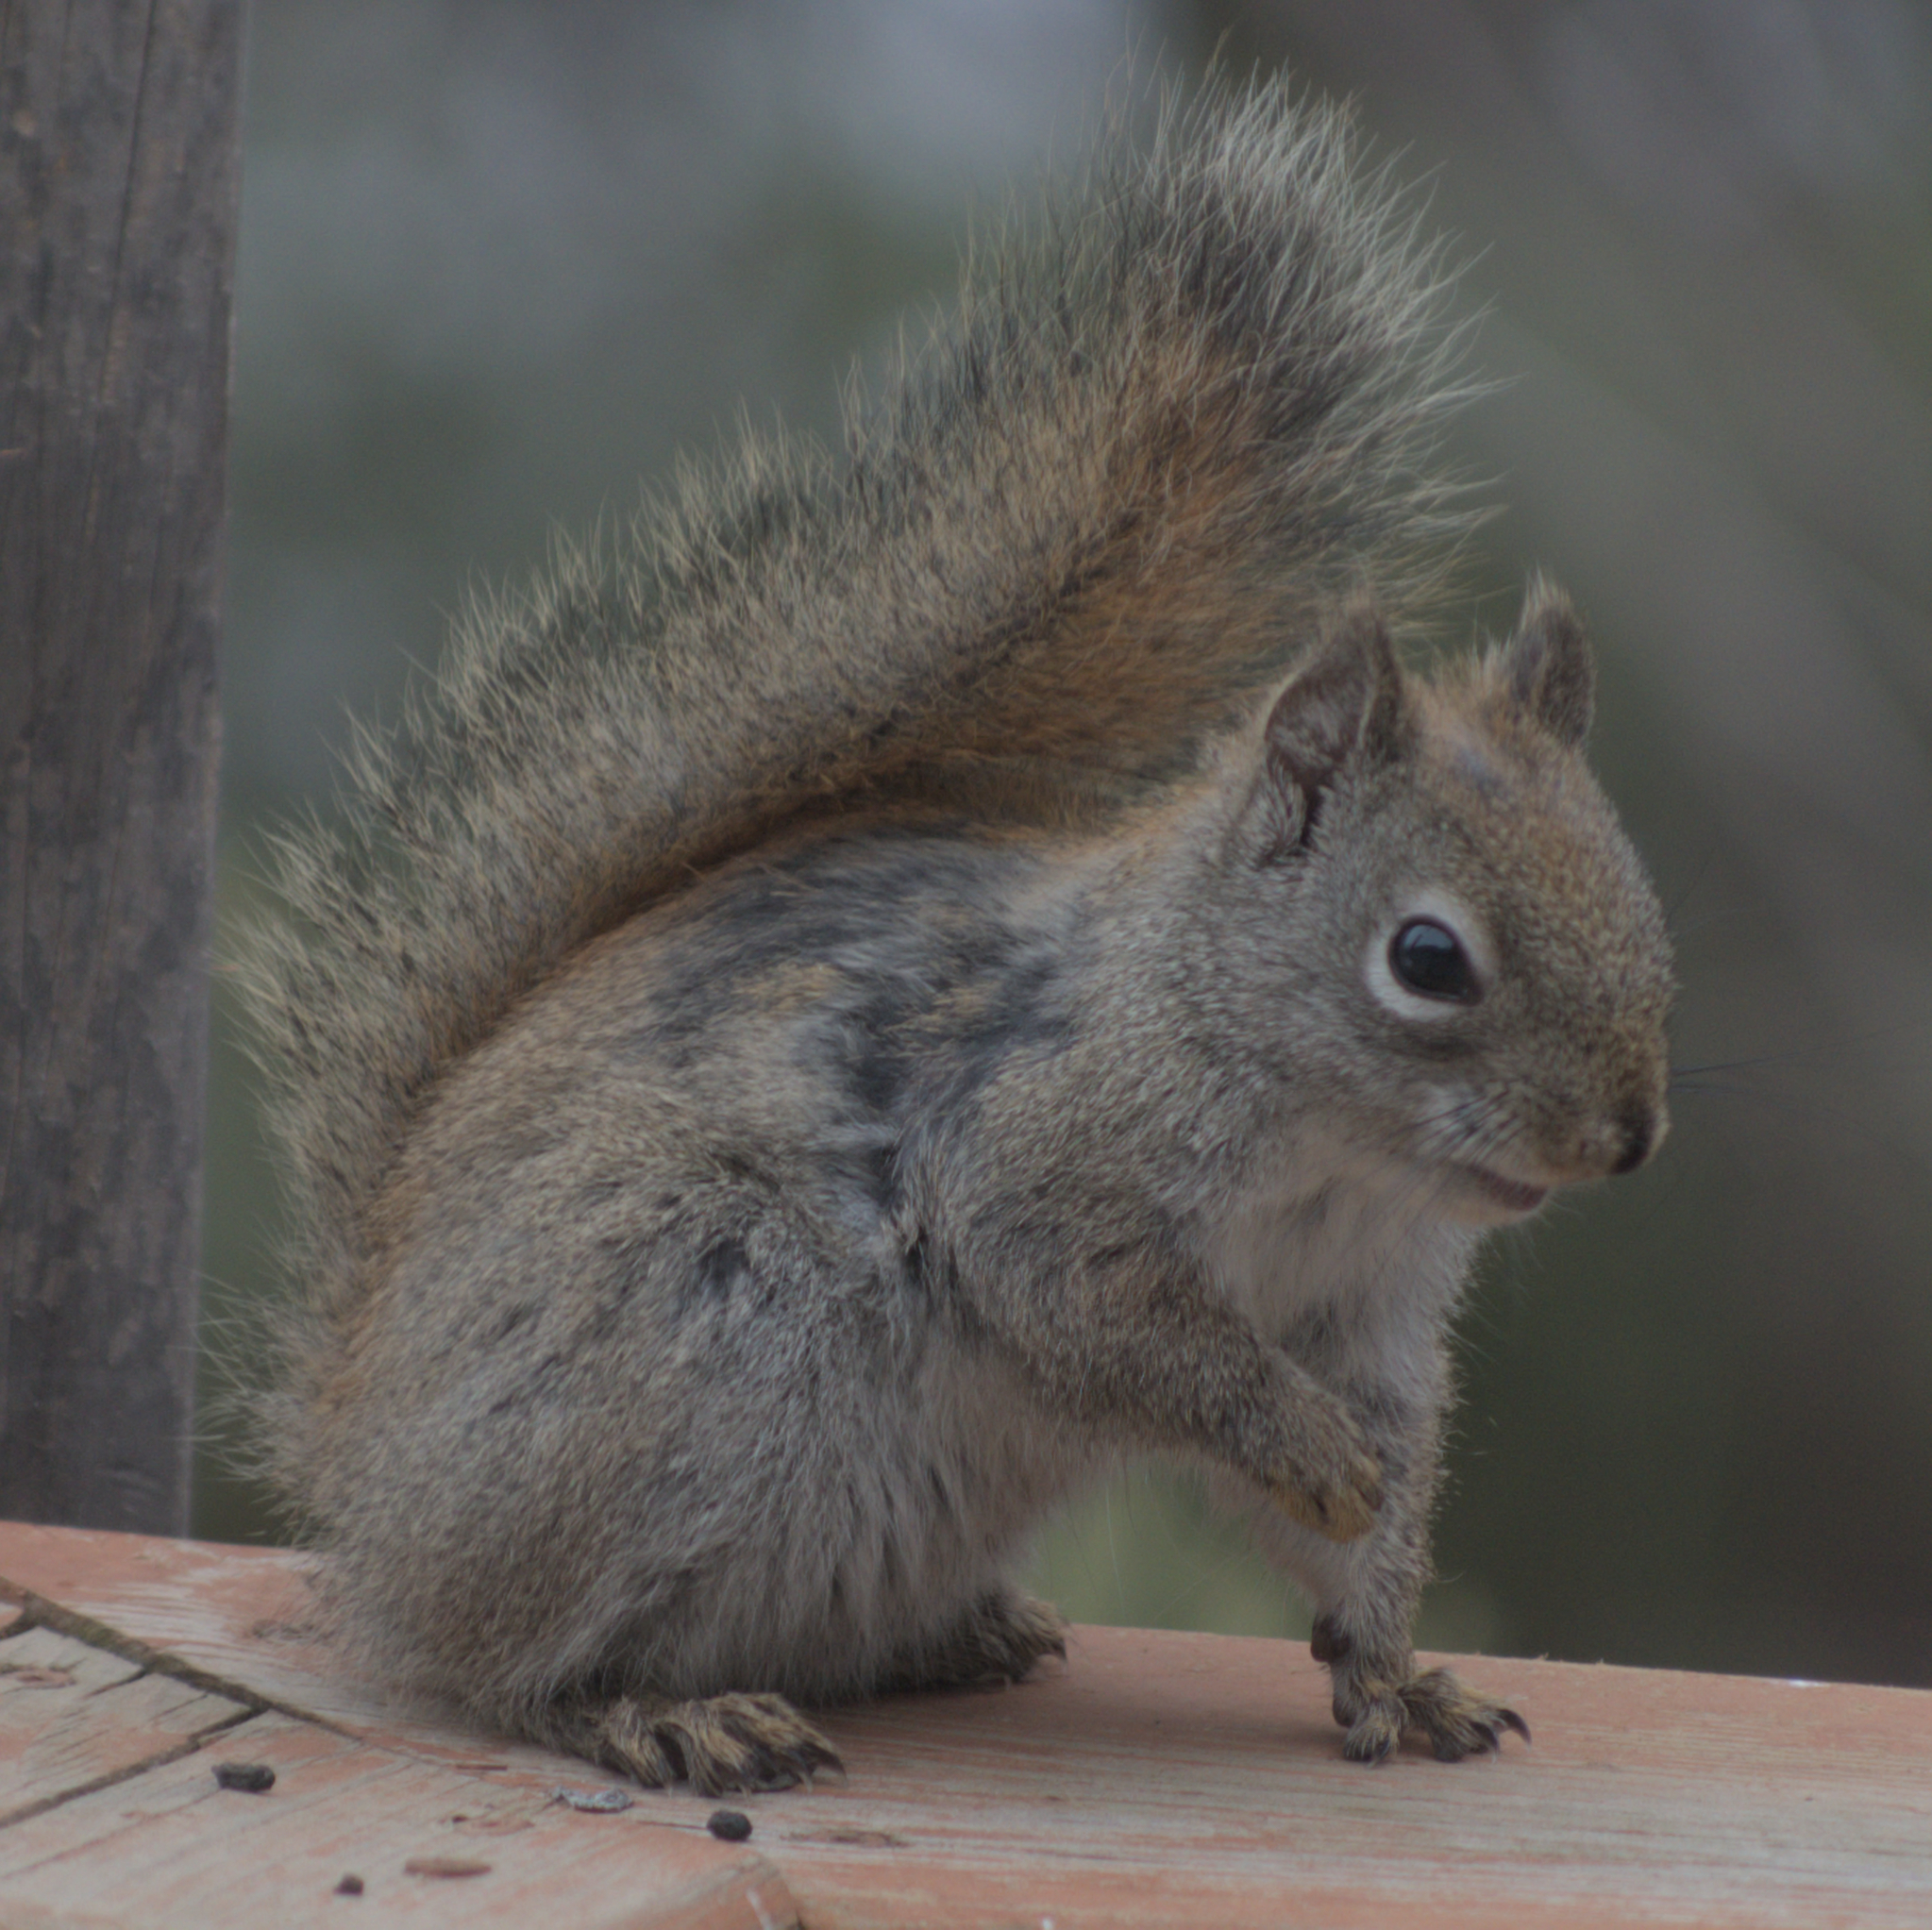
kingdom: Animalia
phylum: Chordata
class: Mammalia
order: Rodentia
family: Sciuridae
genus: Tamiasciurus
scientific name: Tamiasciurus hudsonicus
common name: Red squirrel
